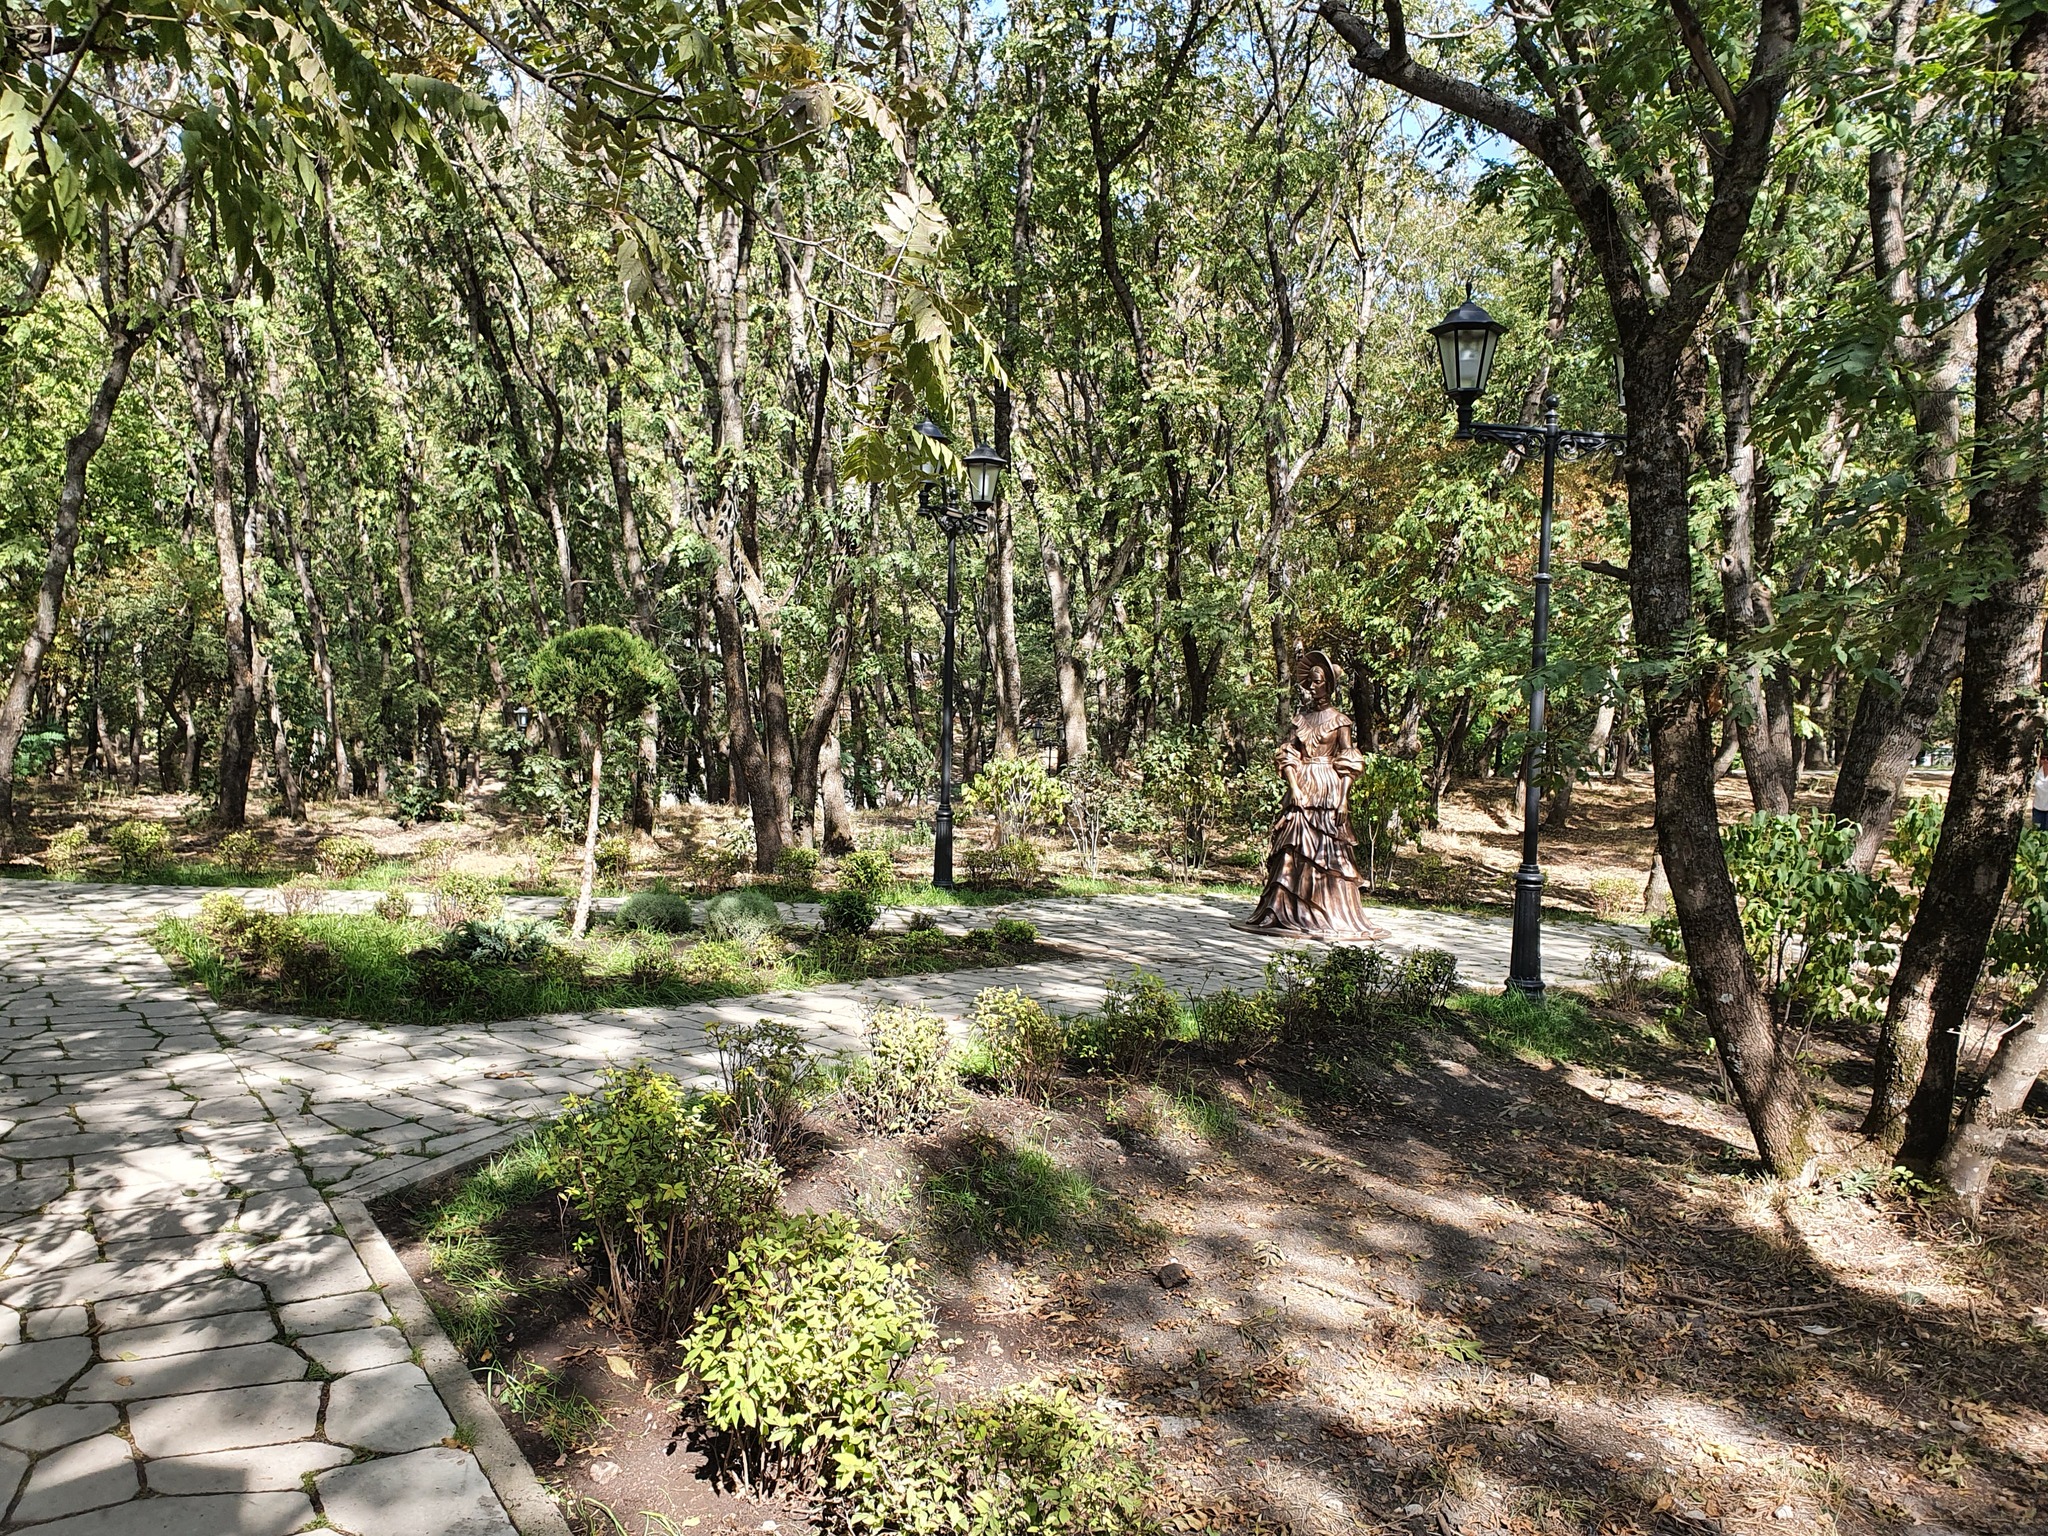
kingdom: Plantae
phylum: Tracheophyta
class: Magnoliopsida
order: Fagales
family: Betulaceae
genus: Carpinus
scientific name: Carpinus orientalis
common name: Eastern hornbeam
